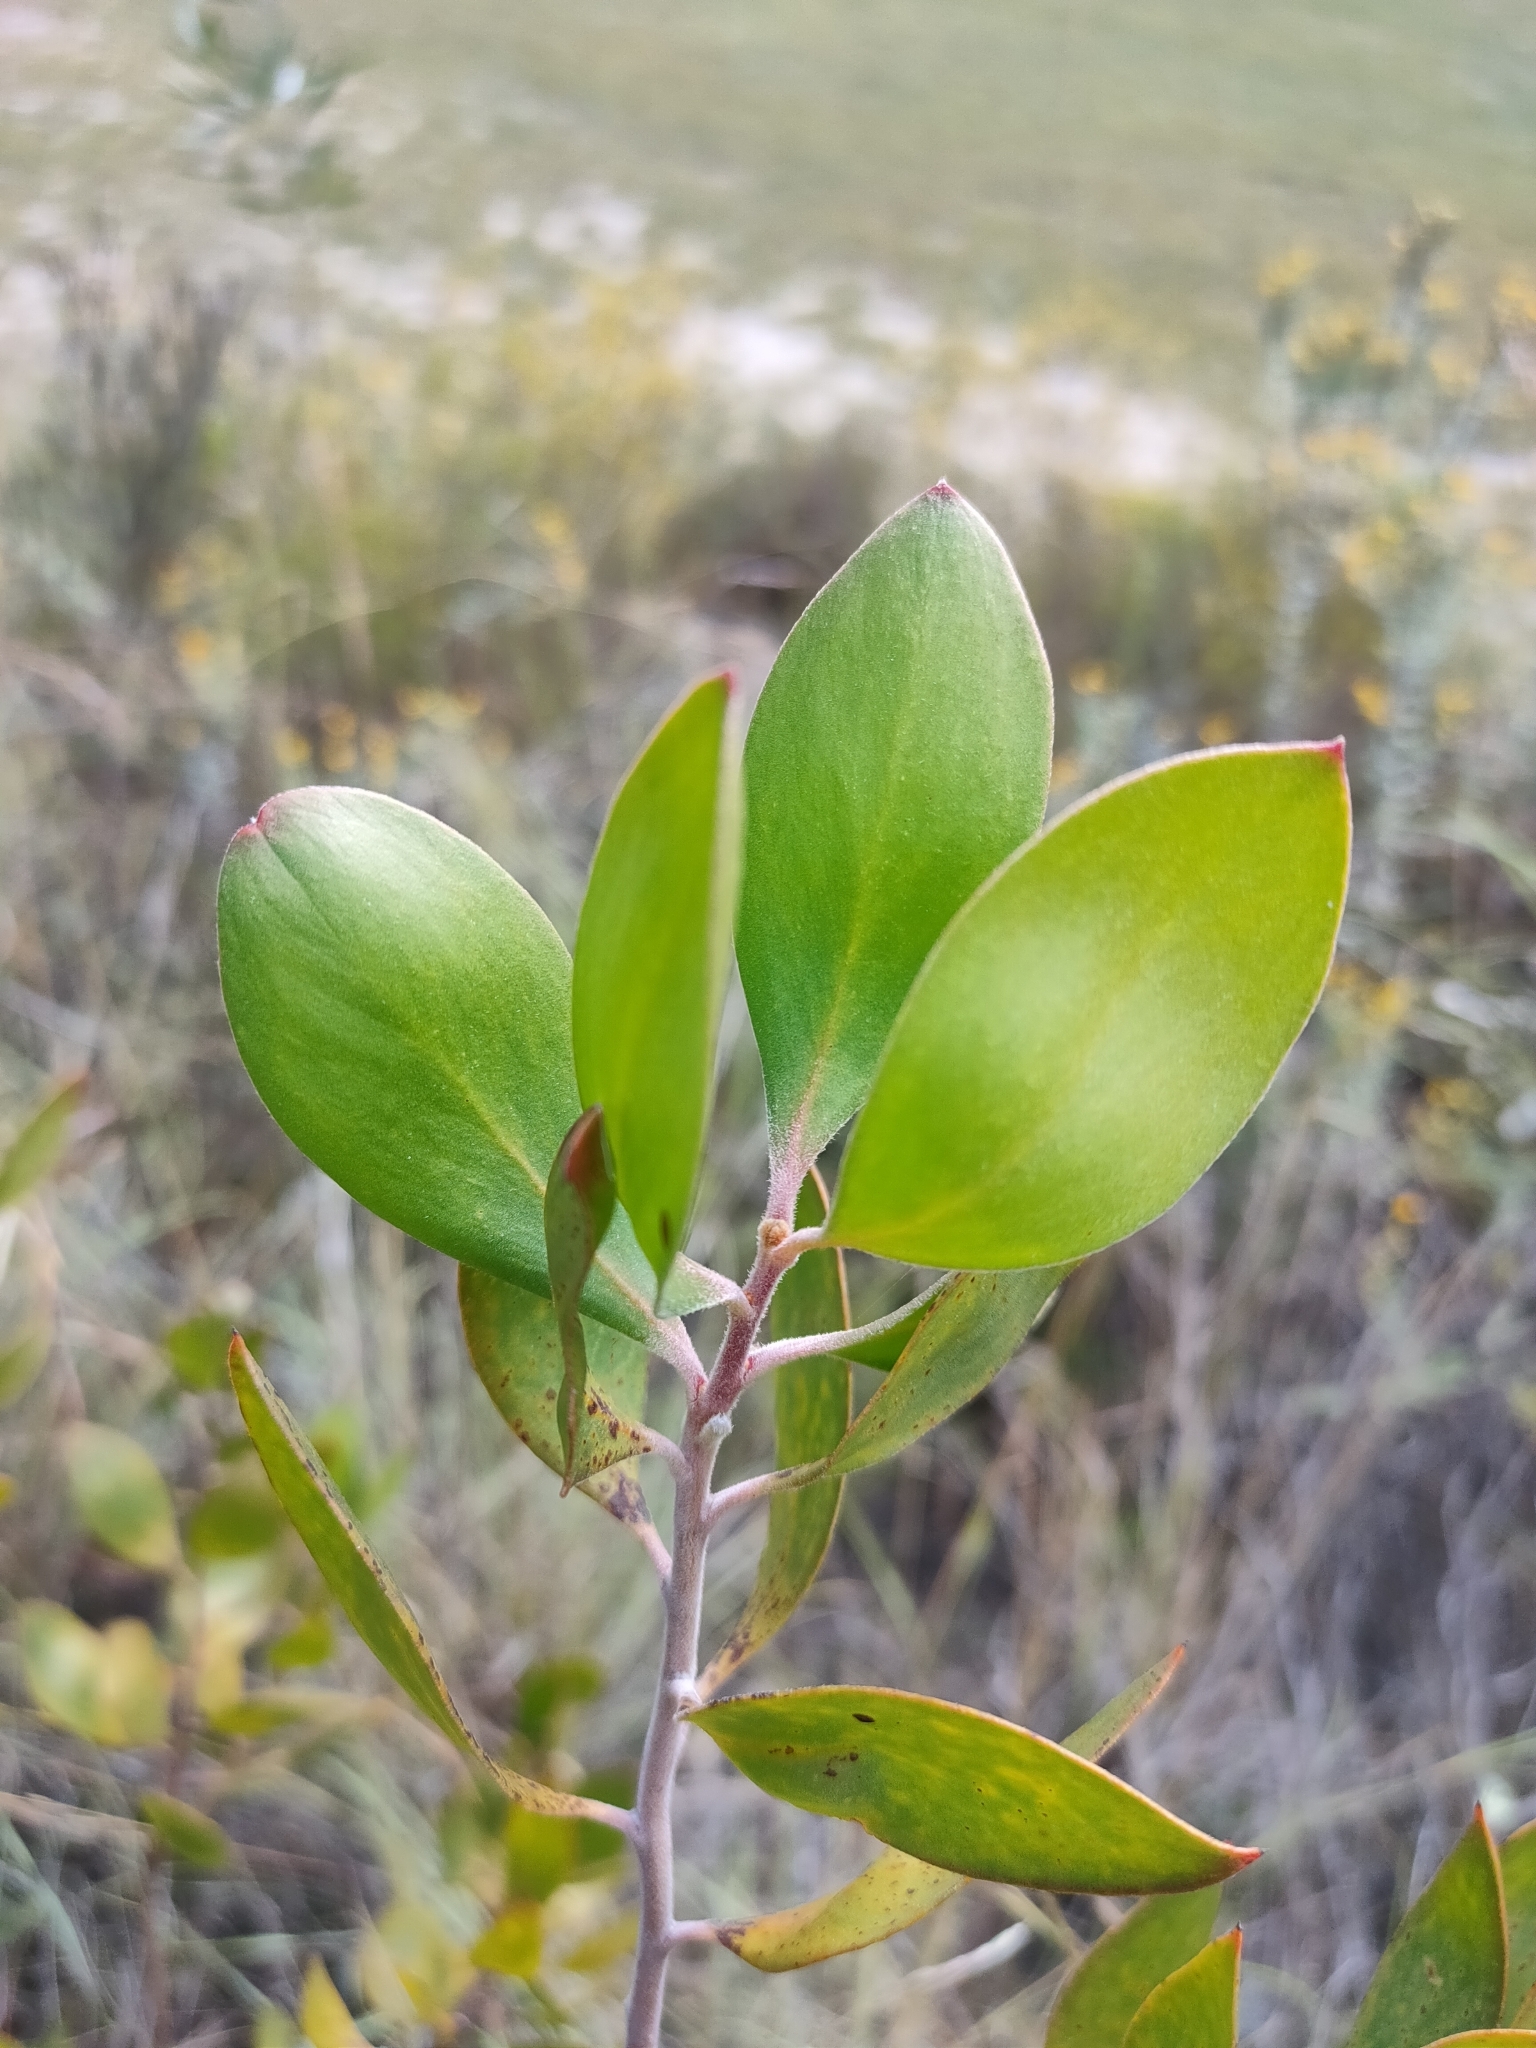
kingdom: Plantae
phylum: Tracheophyta
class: Magnoliopsida
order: Proteales
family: Proteaceae
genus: Persoonia
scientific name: Persoonia cornifolia
